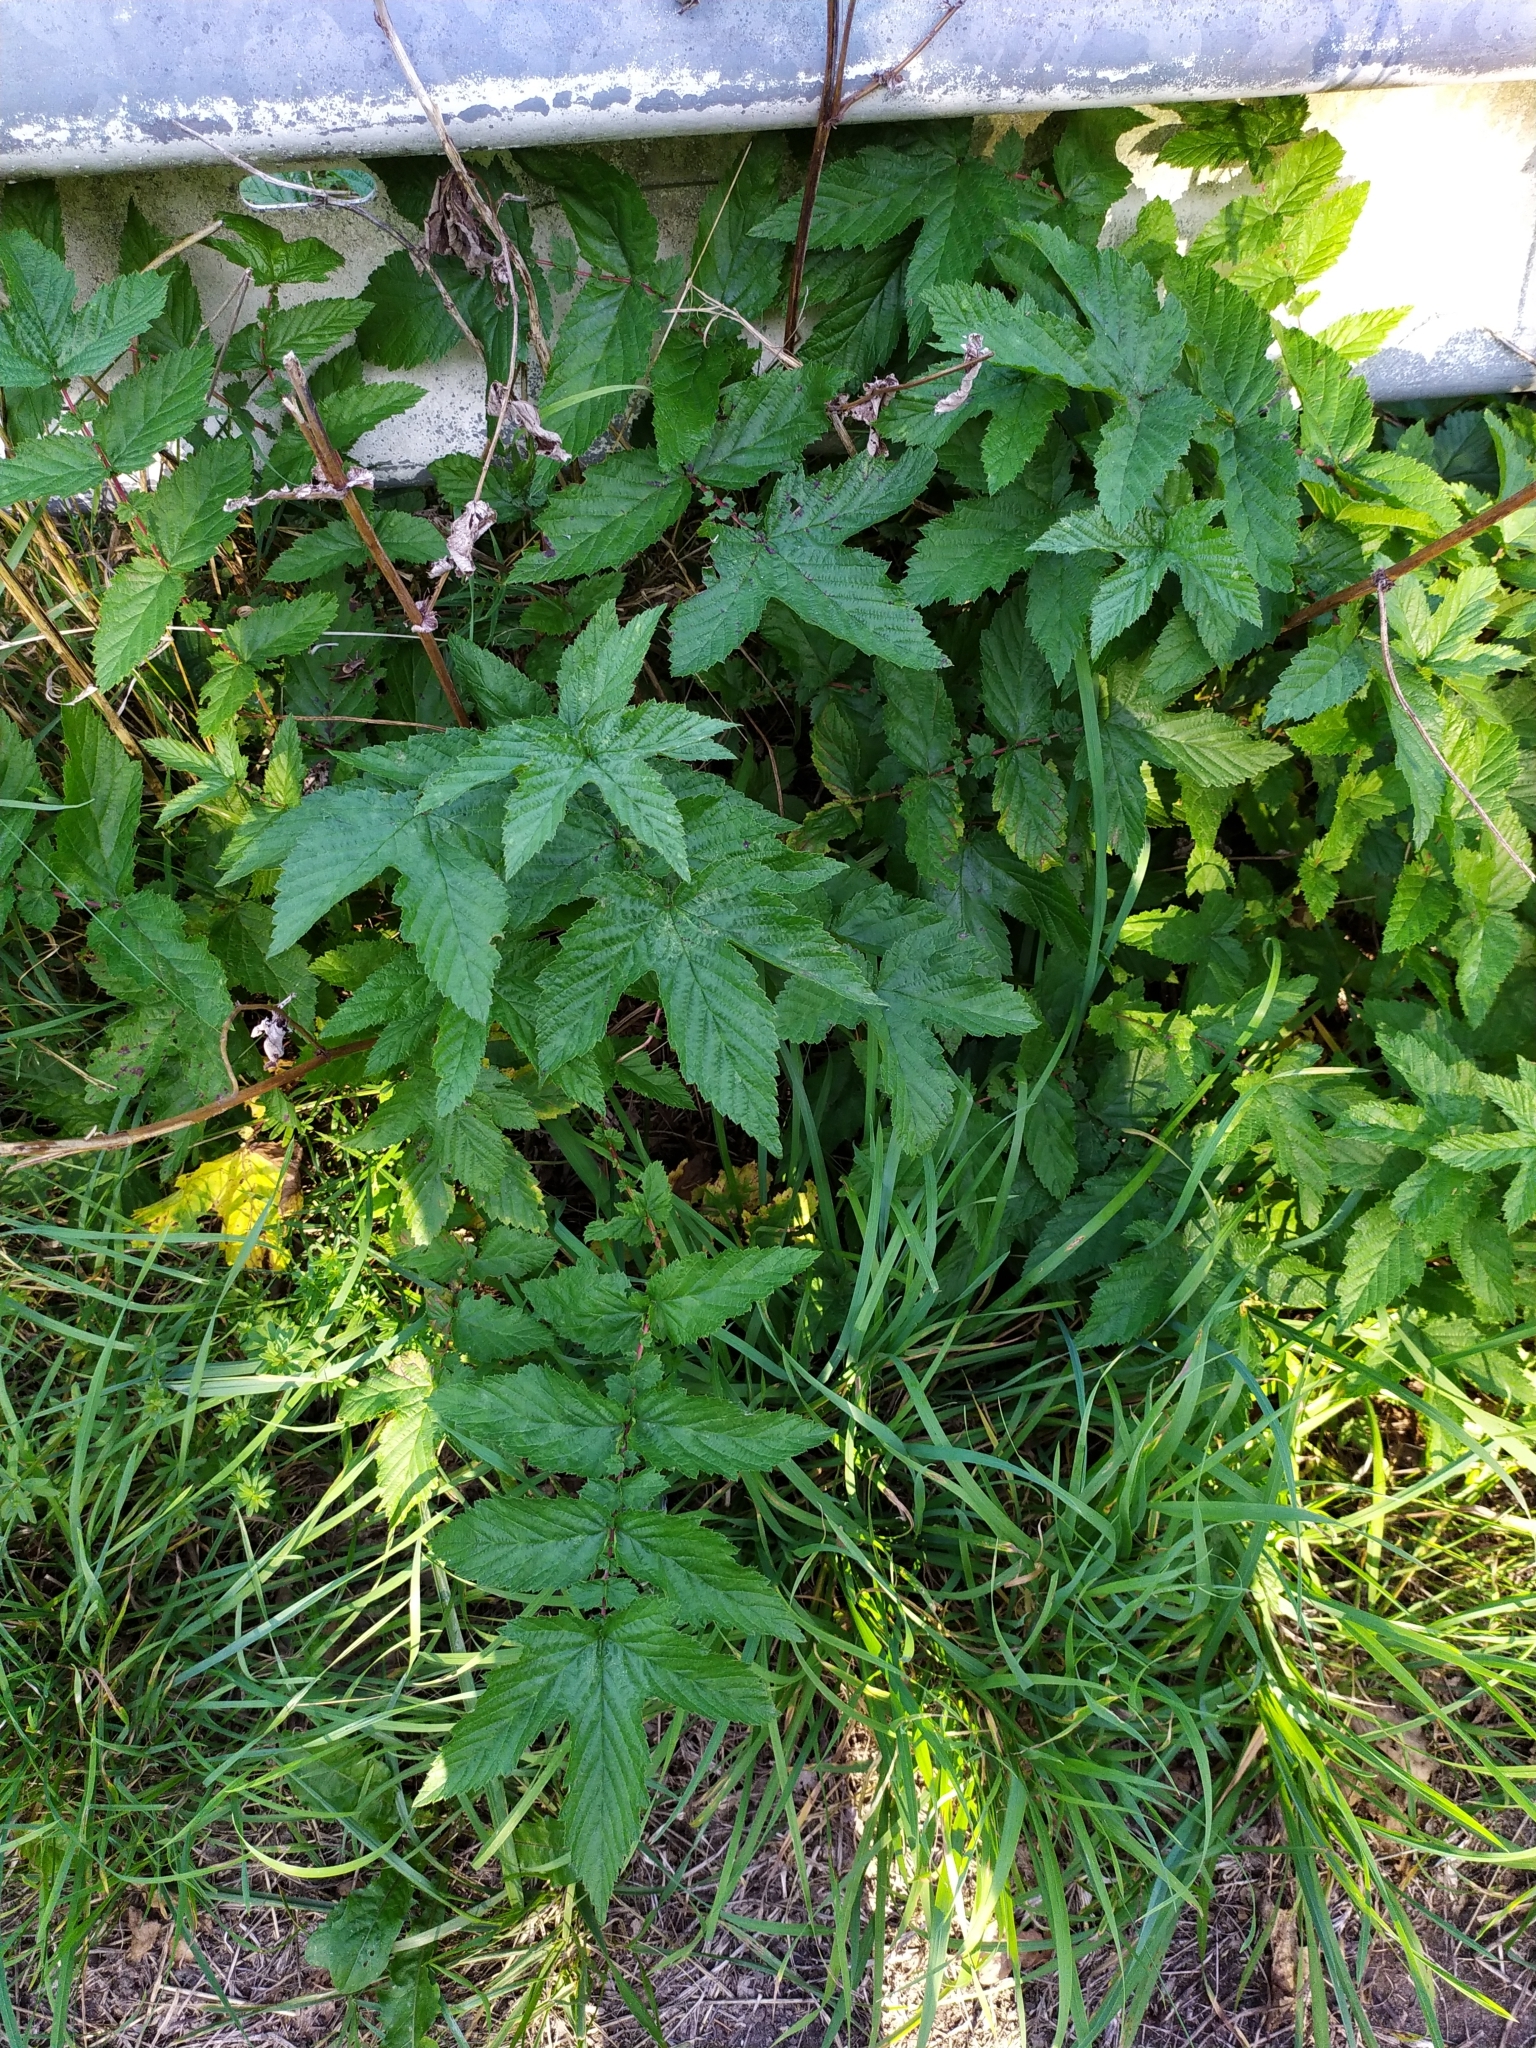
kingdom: Plantae
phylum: Tracheophyta
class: Magnoliopsida
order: Rosales
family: Rosaceae
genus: Filipendula
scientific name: Filipendula ulmaria
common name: Meadowsweet
